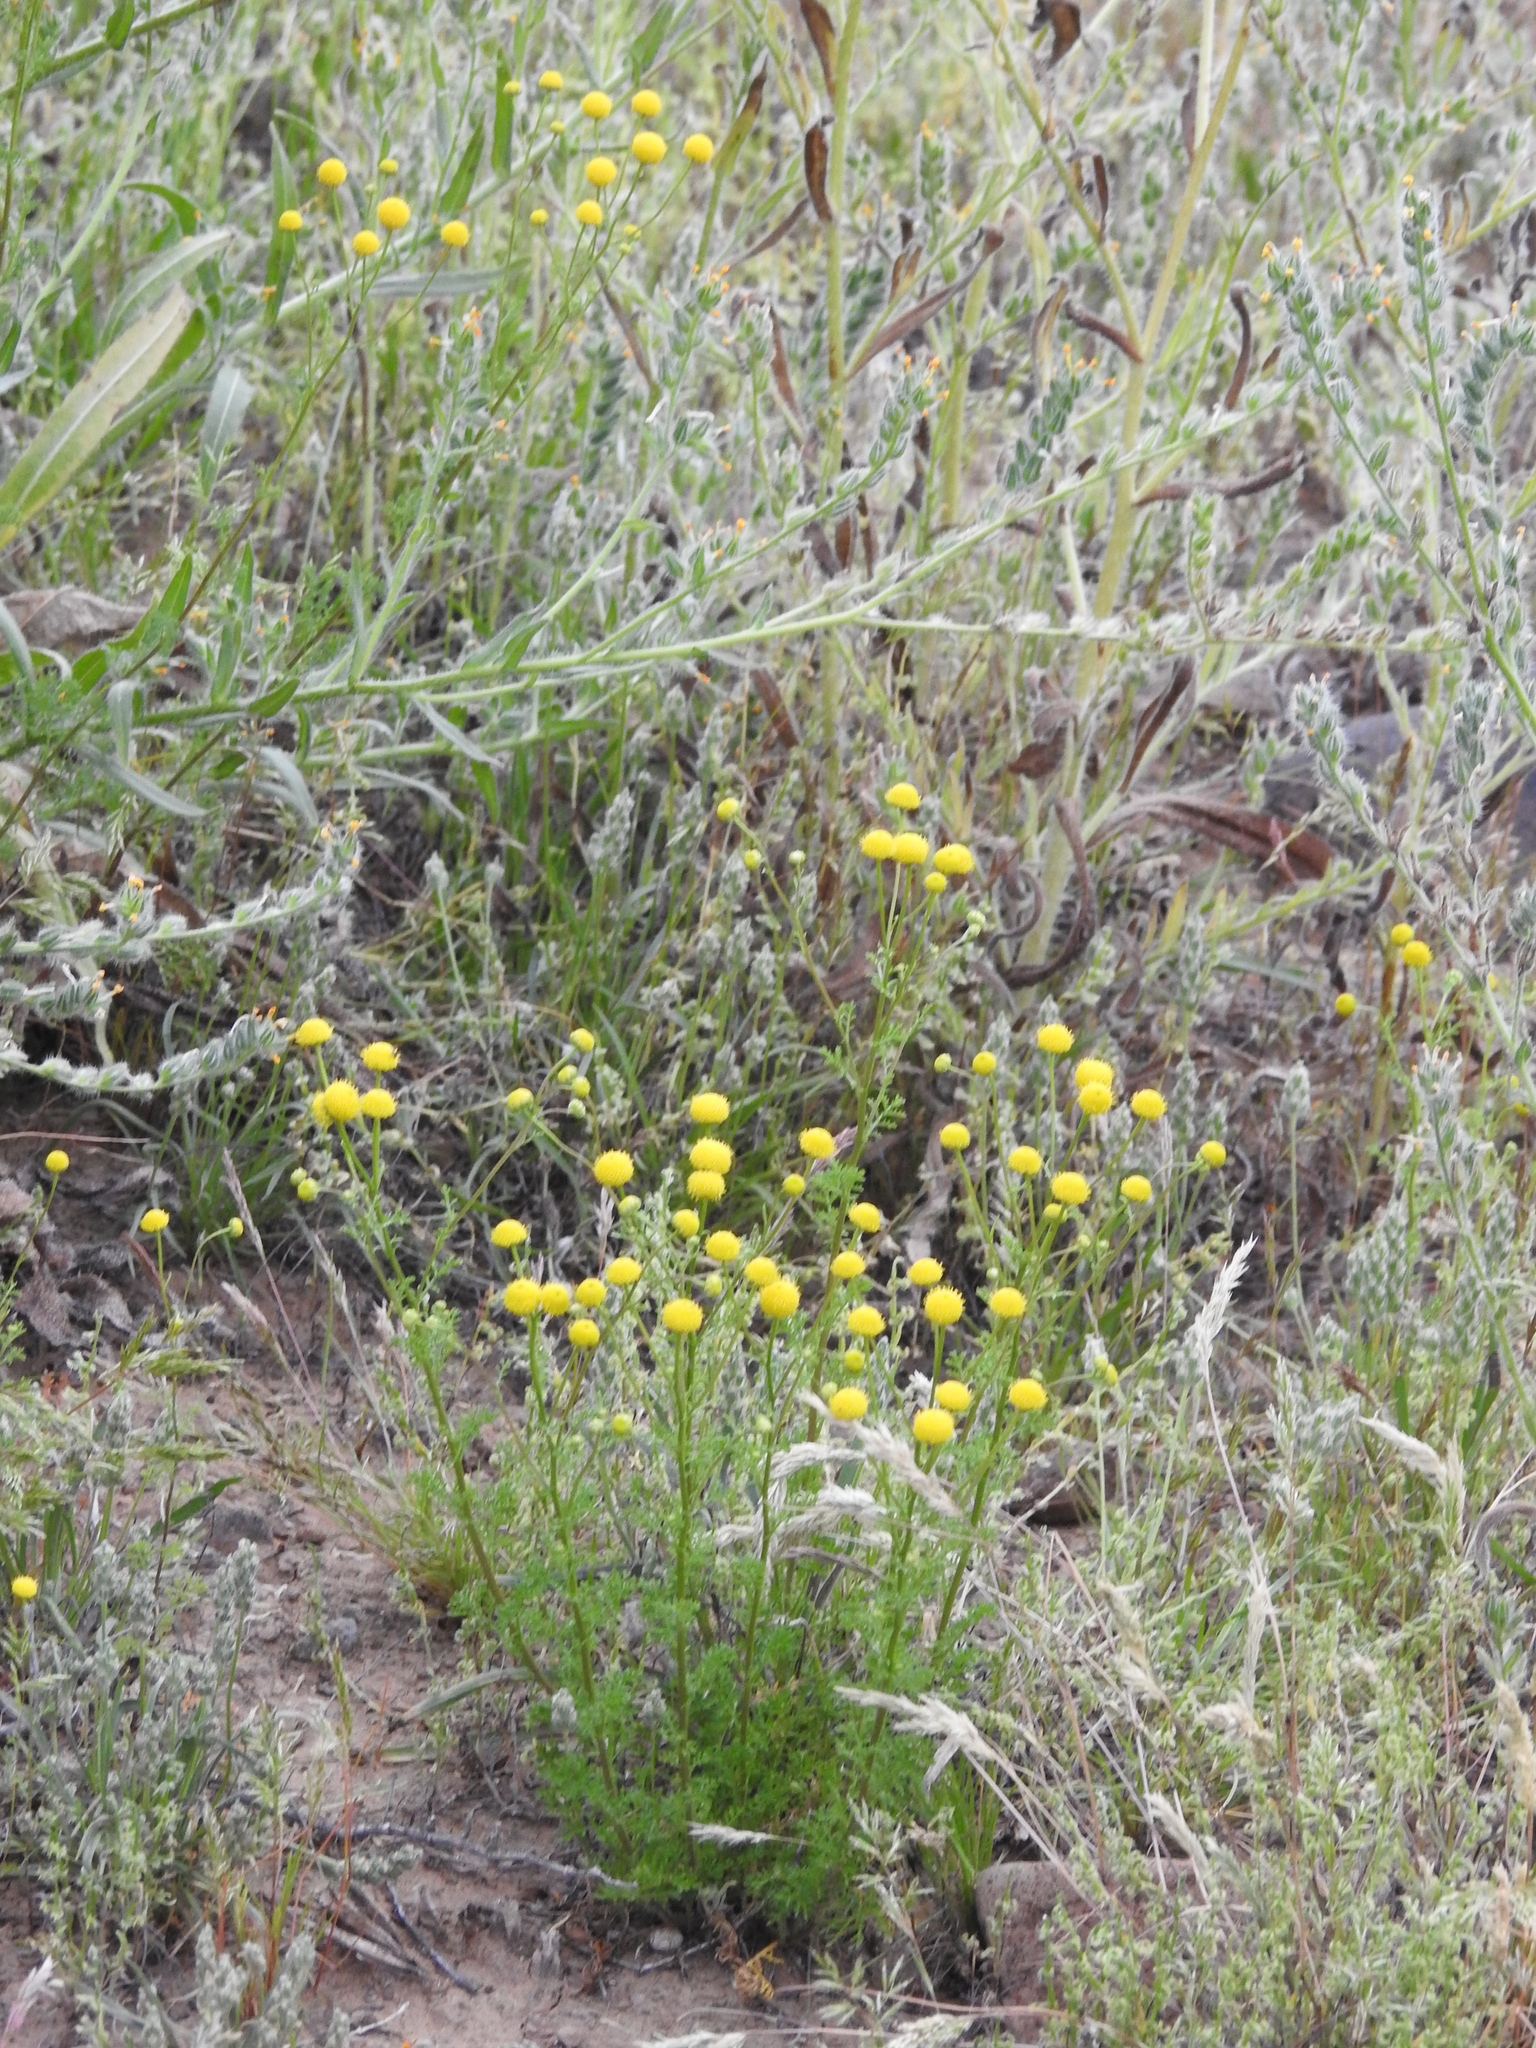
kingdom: Plantae
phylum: Tracheophyta
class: Magnoliopsida
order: Asterales
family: Asteraceae
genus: Oncosiphon
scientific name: Oncosiphon pilulifer
